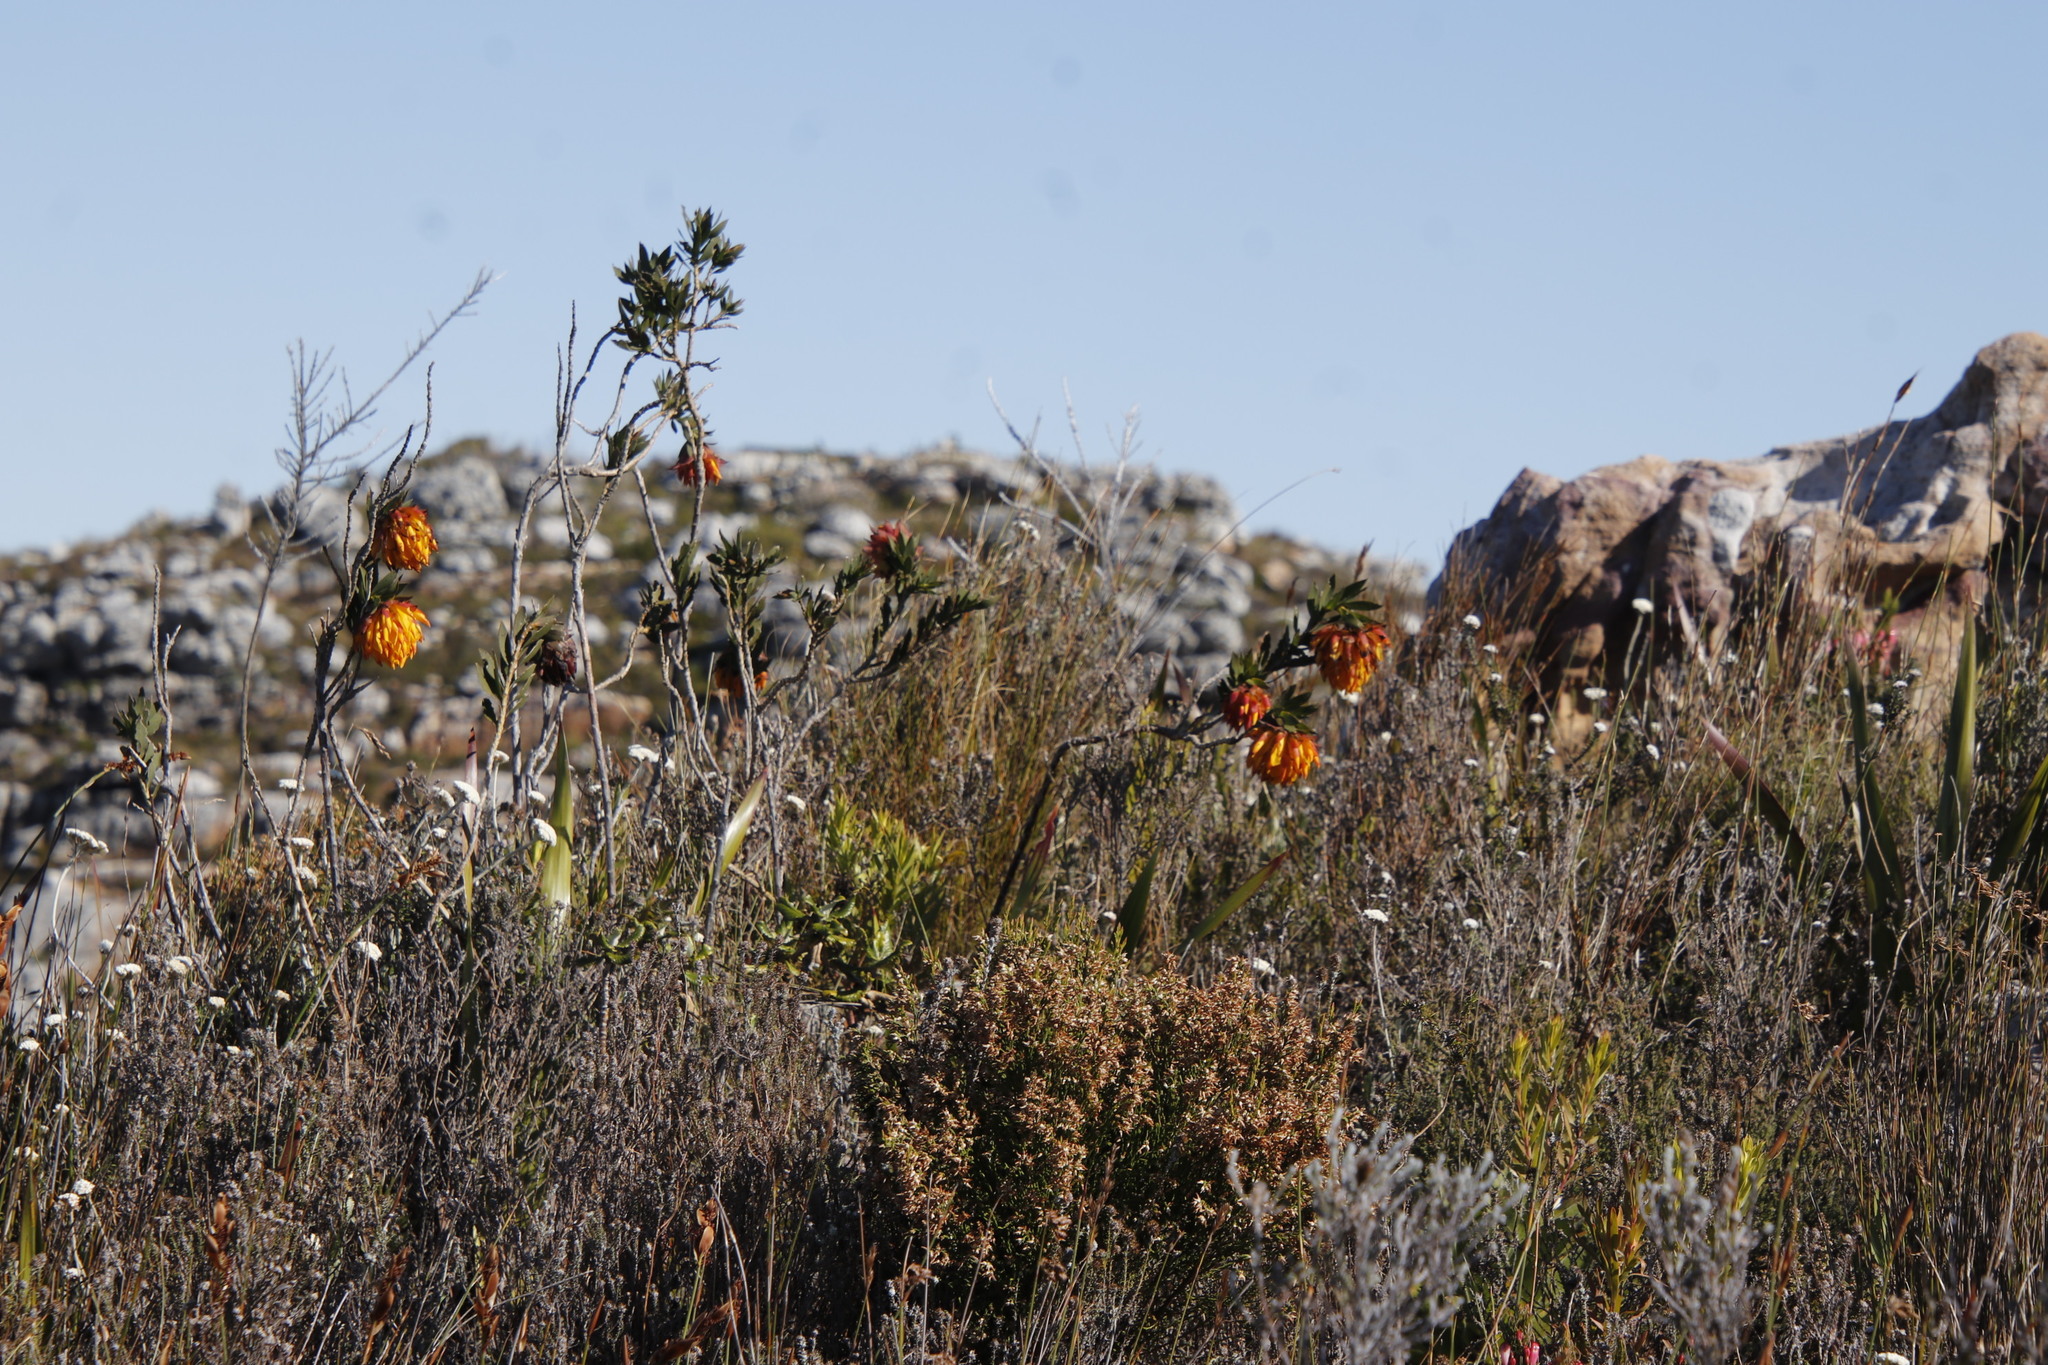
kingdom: Plantae
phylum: Tracheophyta
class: Magnoliopsida
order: Fabales
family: Fabaceae
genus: Liparia
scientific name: Liparia splendens
